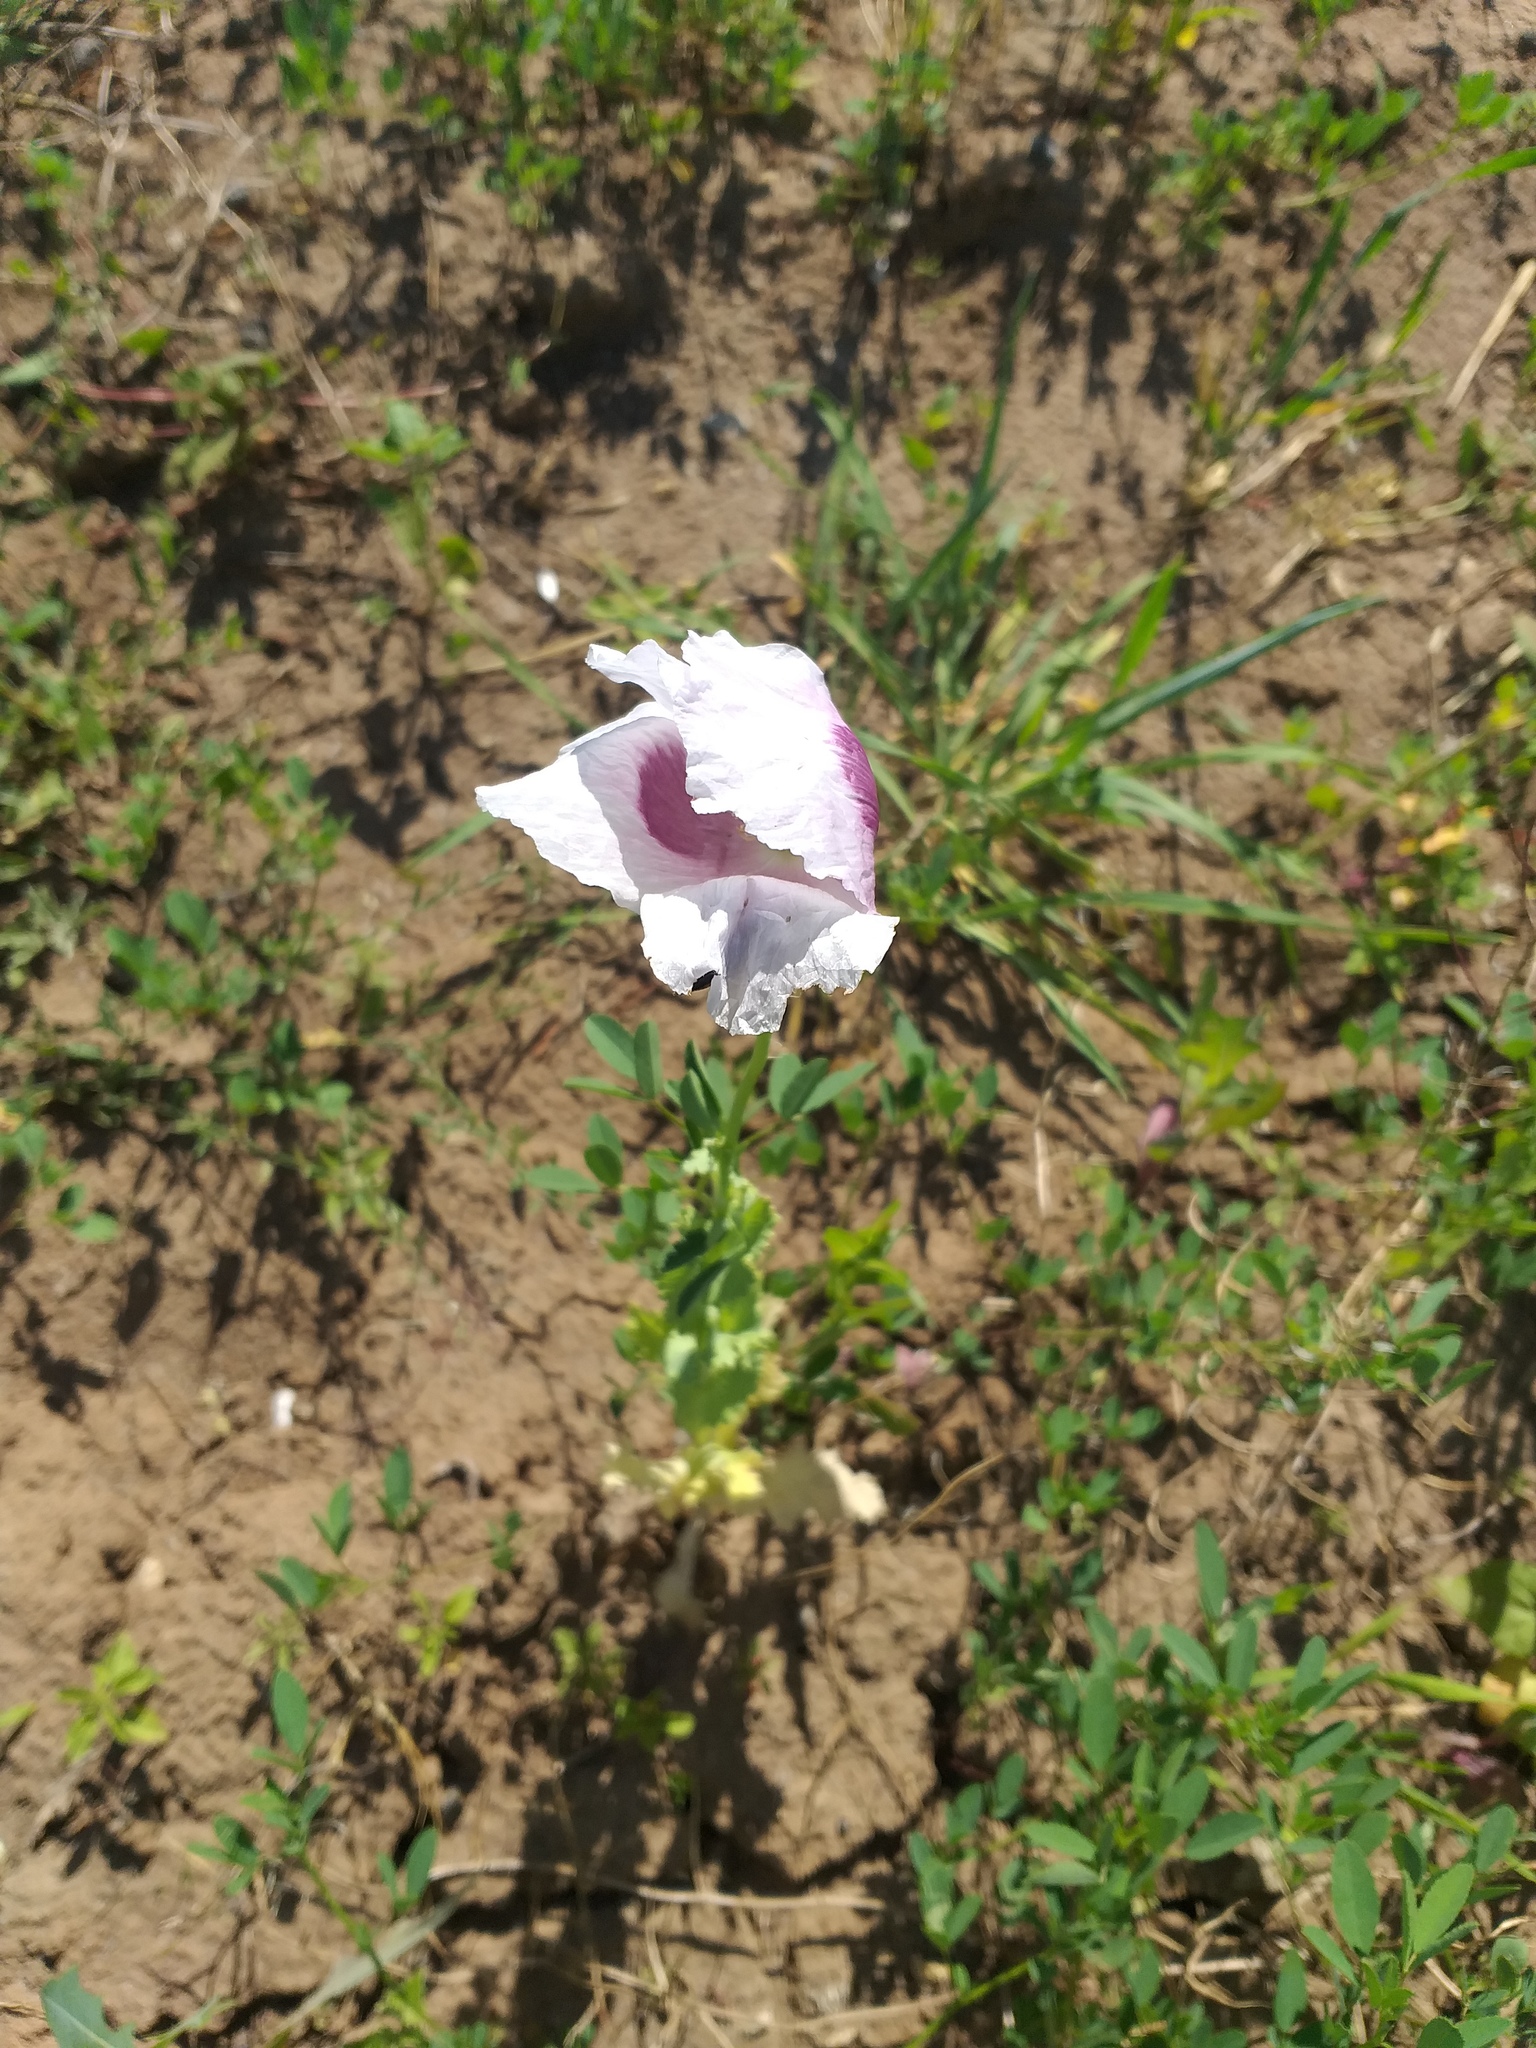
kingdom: Plantae
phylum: Tracheophyta
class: Magnoliopsida
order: Ranunculales
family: Papaveraceae
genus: Papaver
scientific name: Papaver somniferum
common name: Opium poppy
